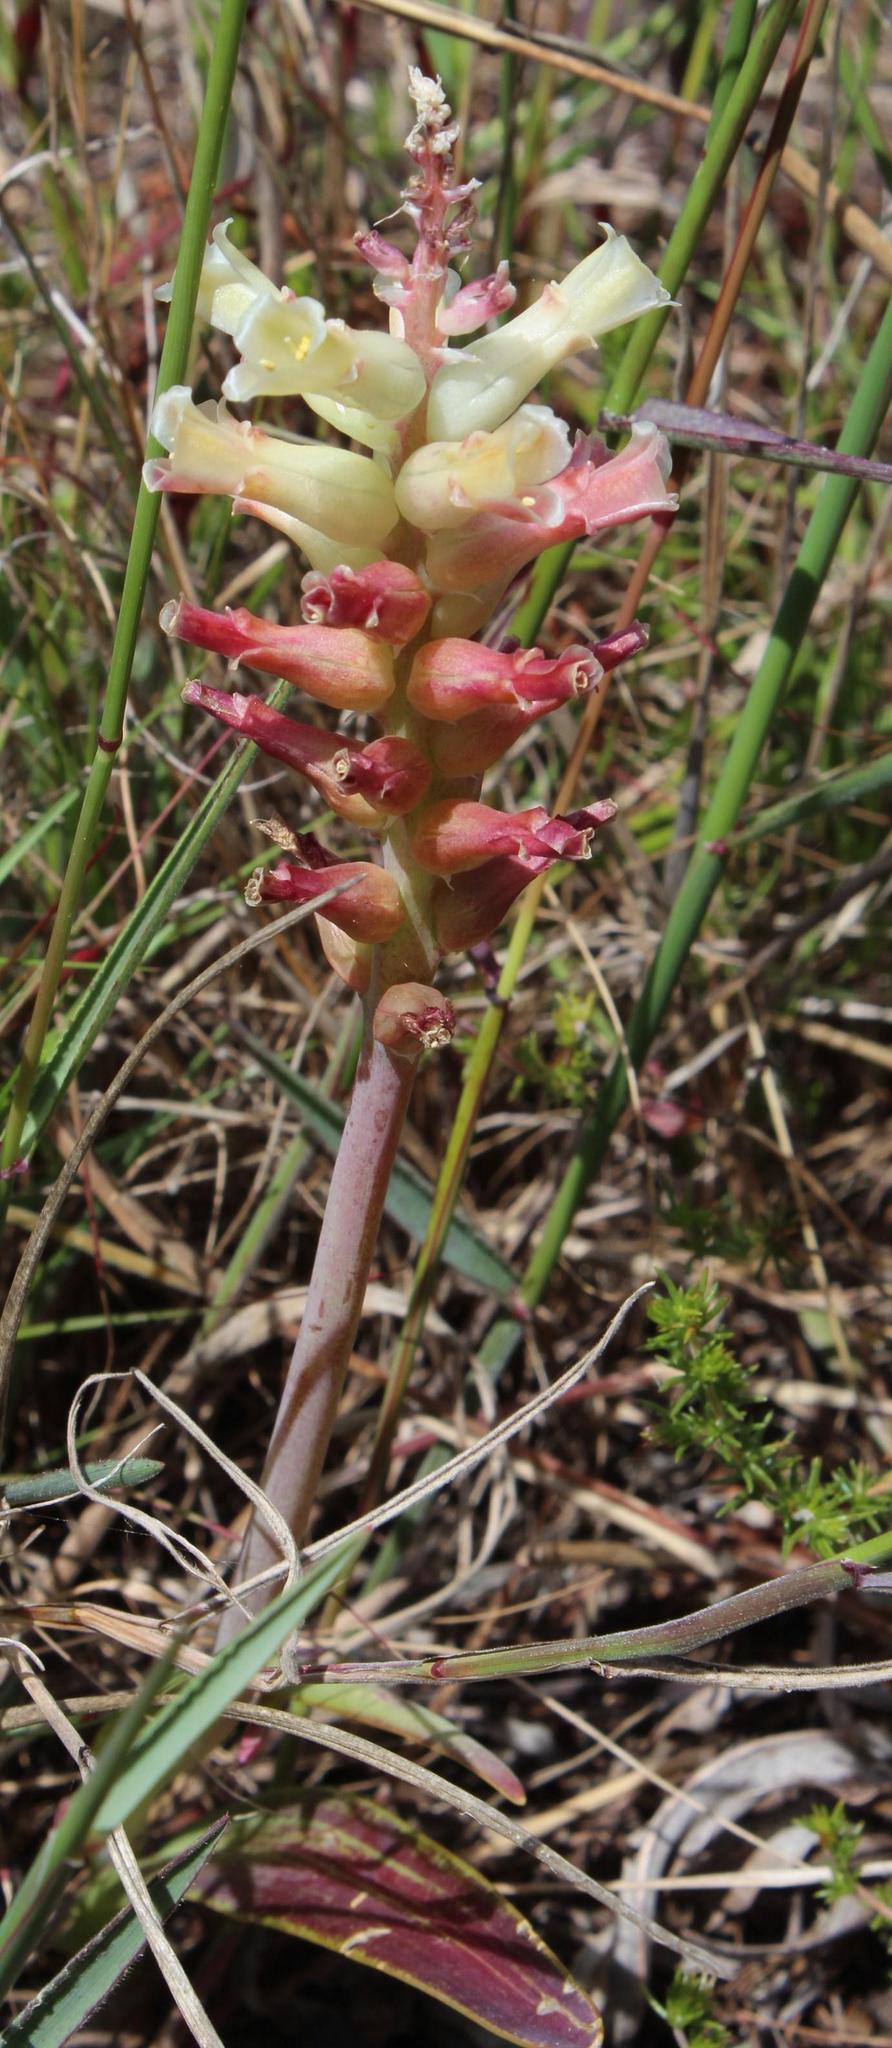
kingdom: Plantae
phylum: Tracheophyta
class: Liliopsida
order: Asparagales
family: Asparagaceae
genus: Lachenalia
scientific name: Lachenalia orchioides
